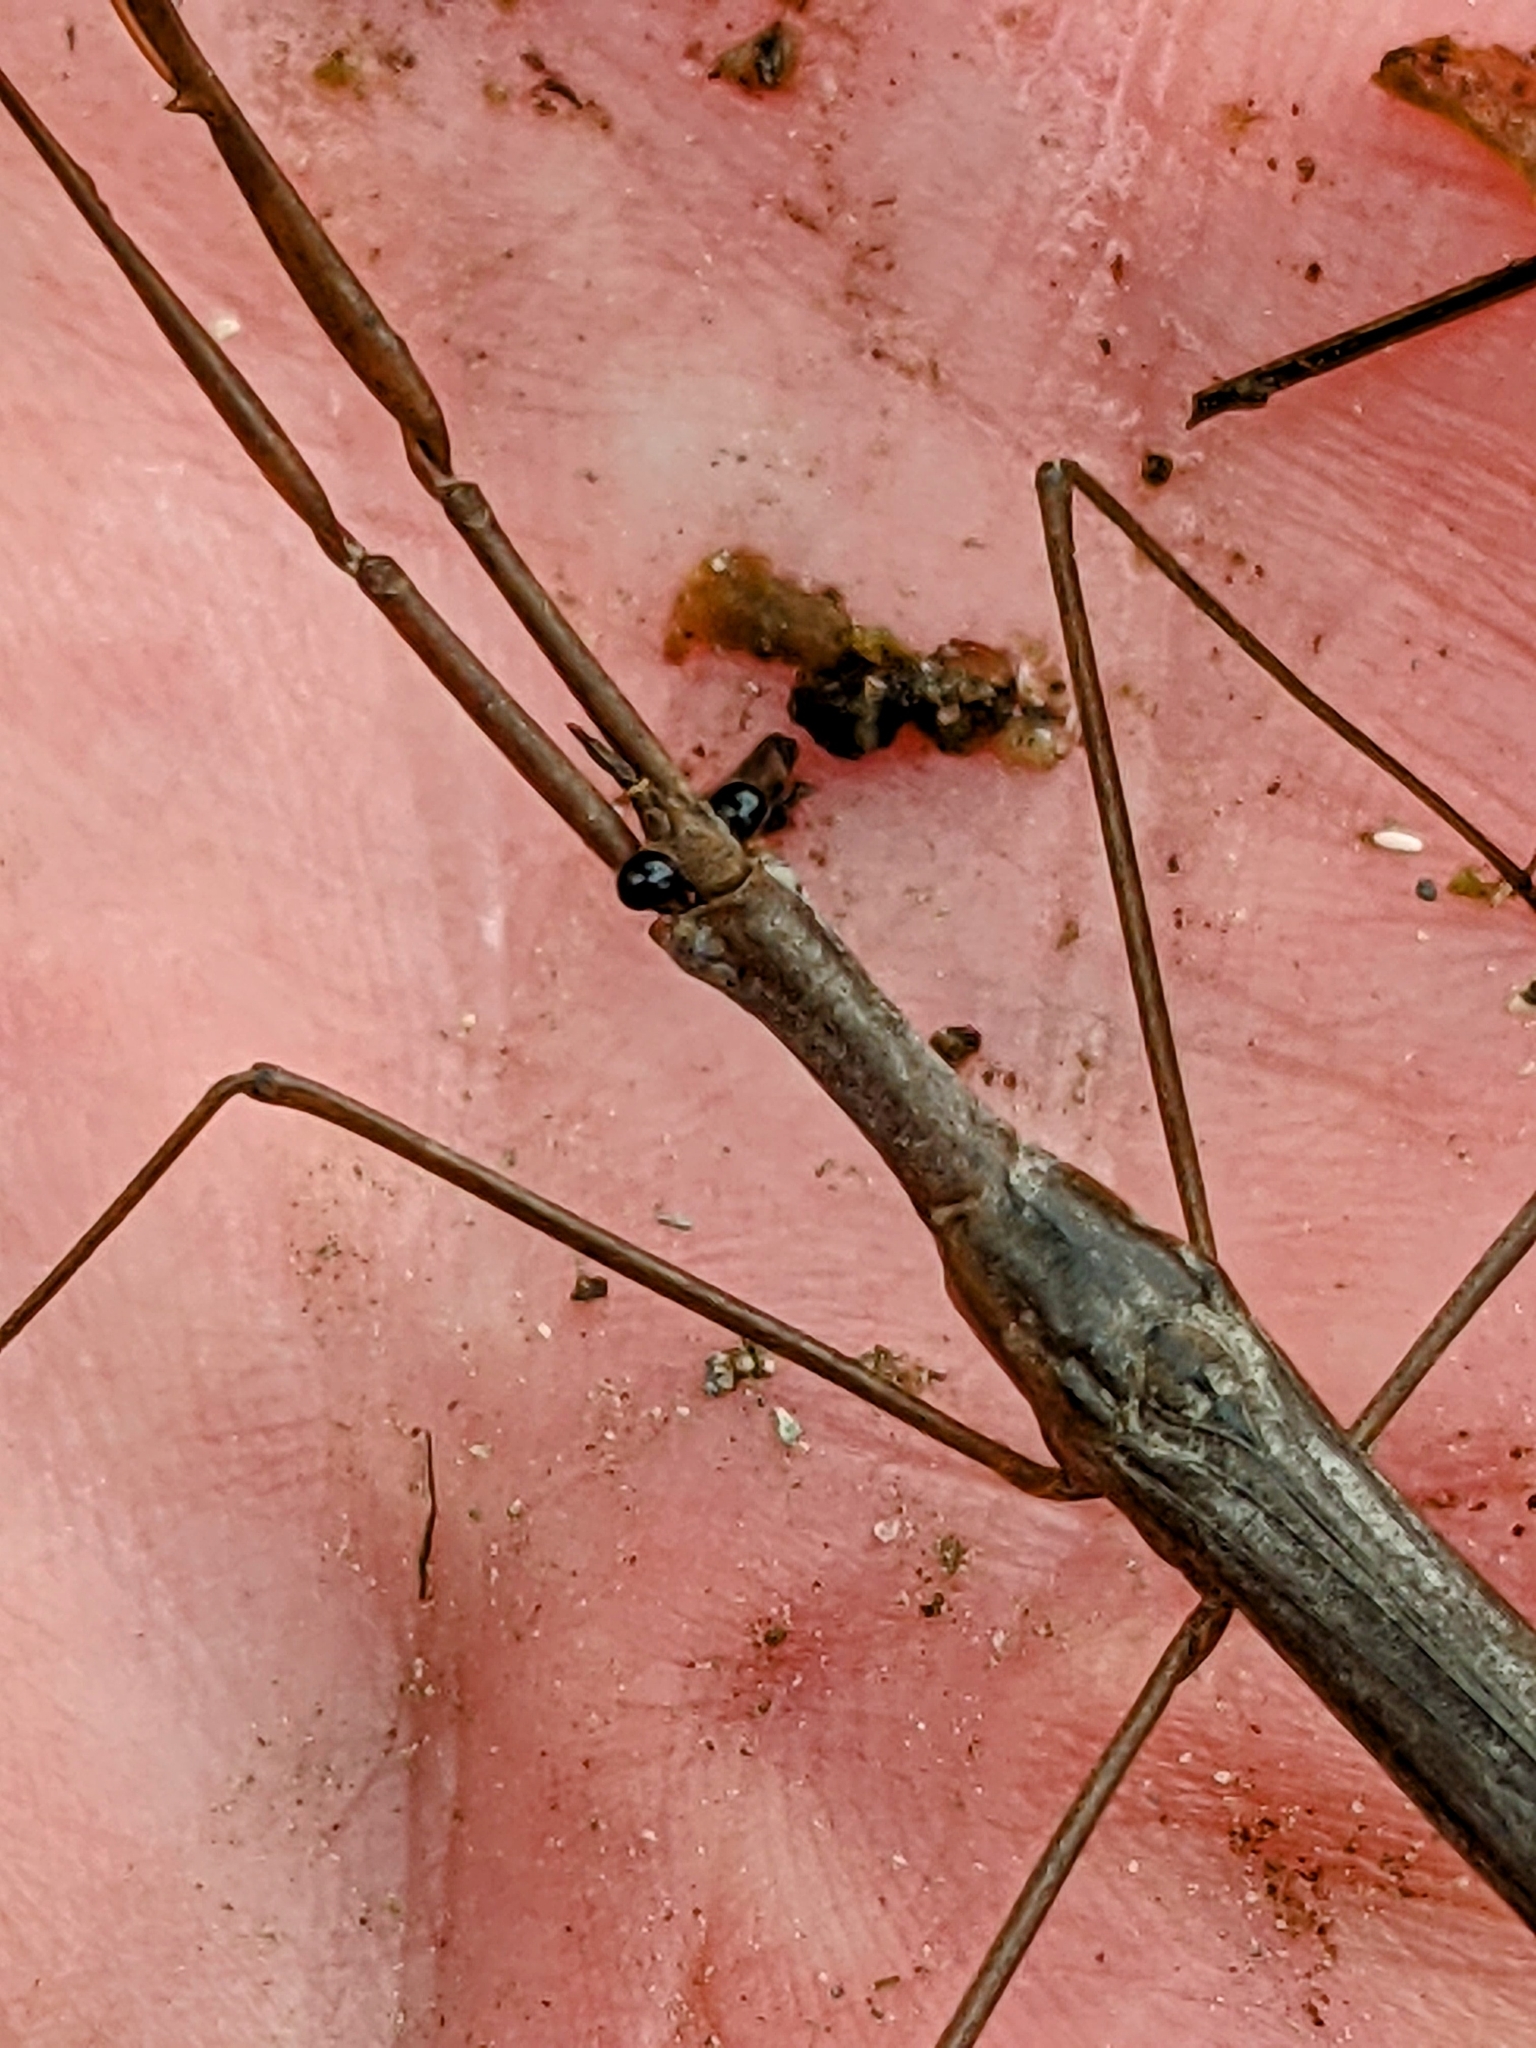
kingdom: Animalia
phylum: Arthropoda
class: Insecta
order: Hemiptera
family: Nepidae
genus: Ranatra
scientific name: Ranatra
